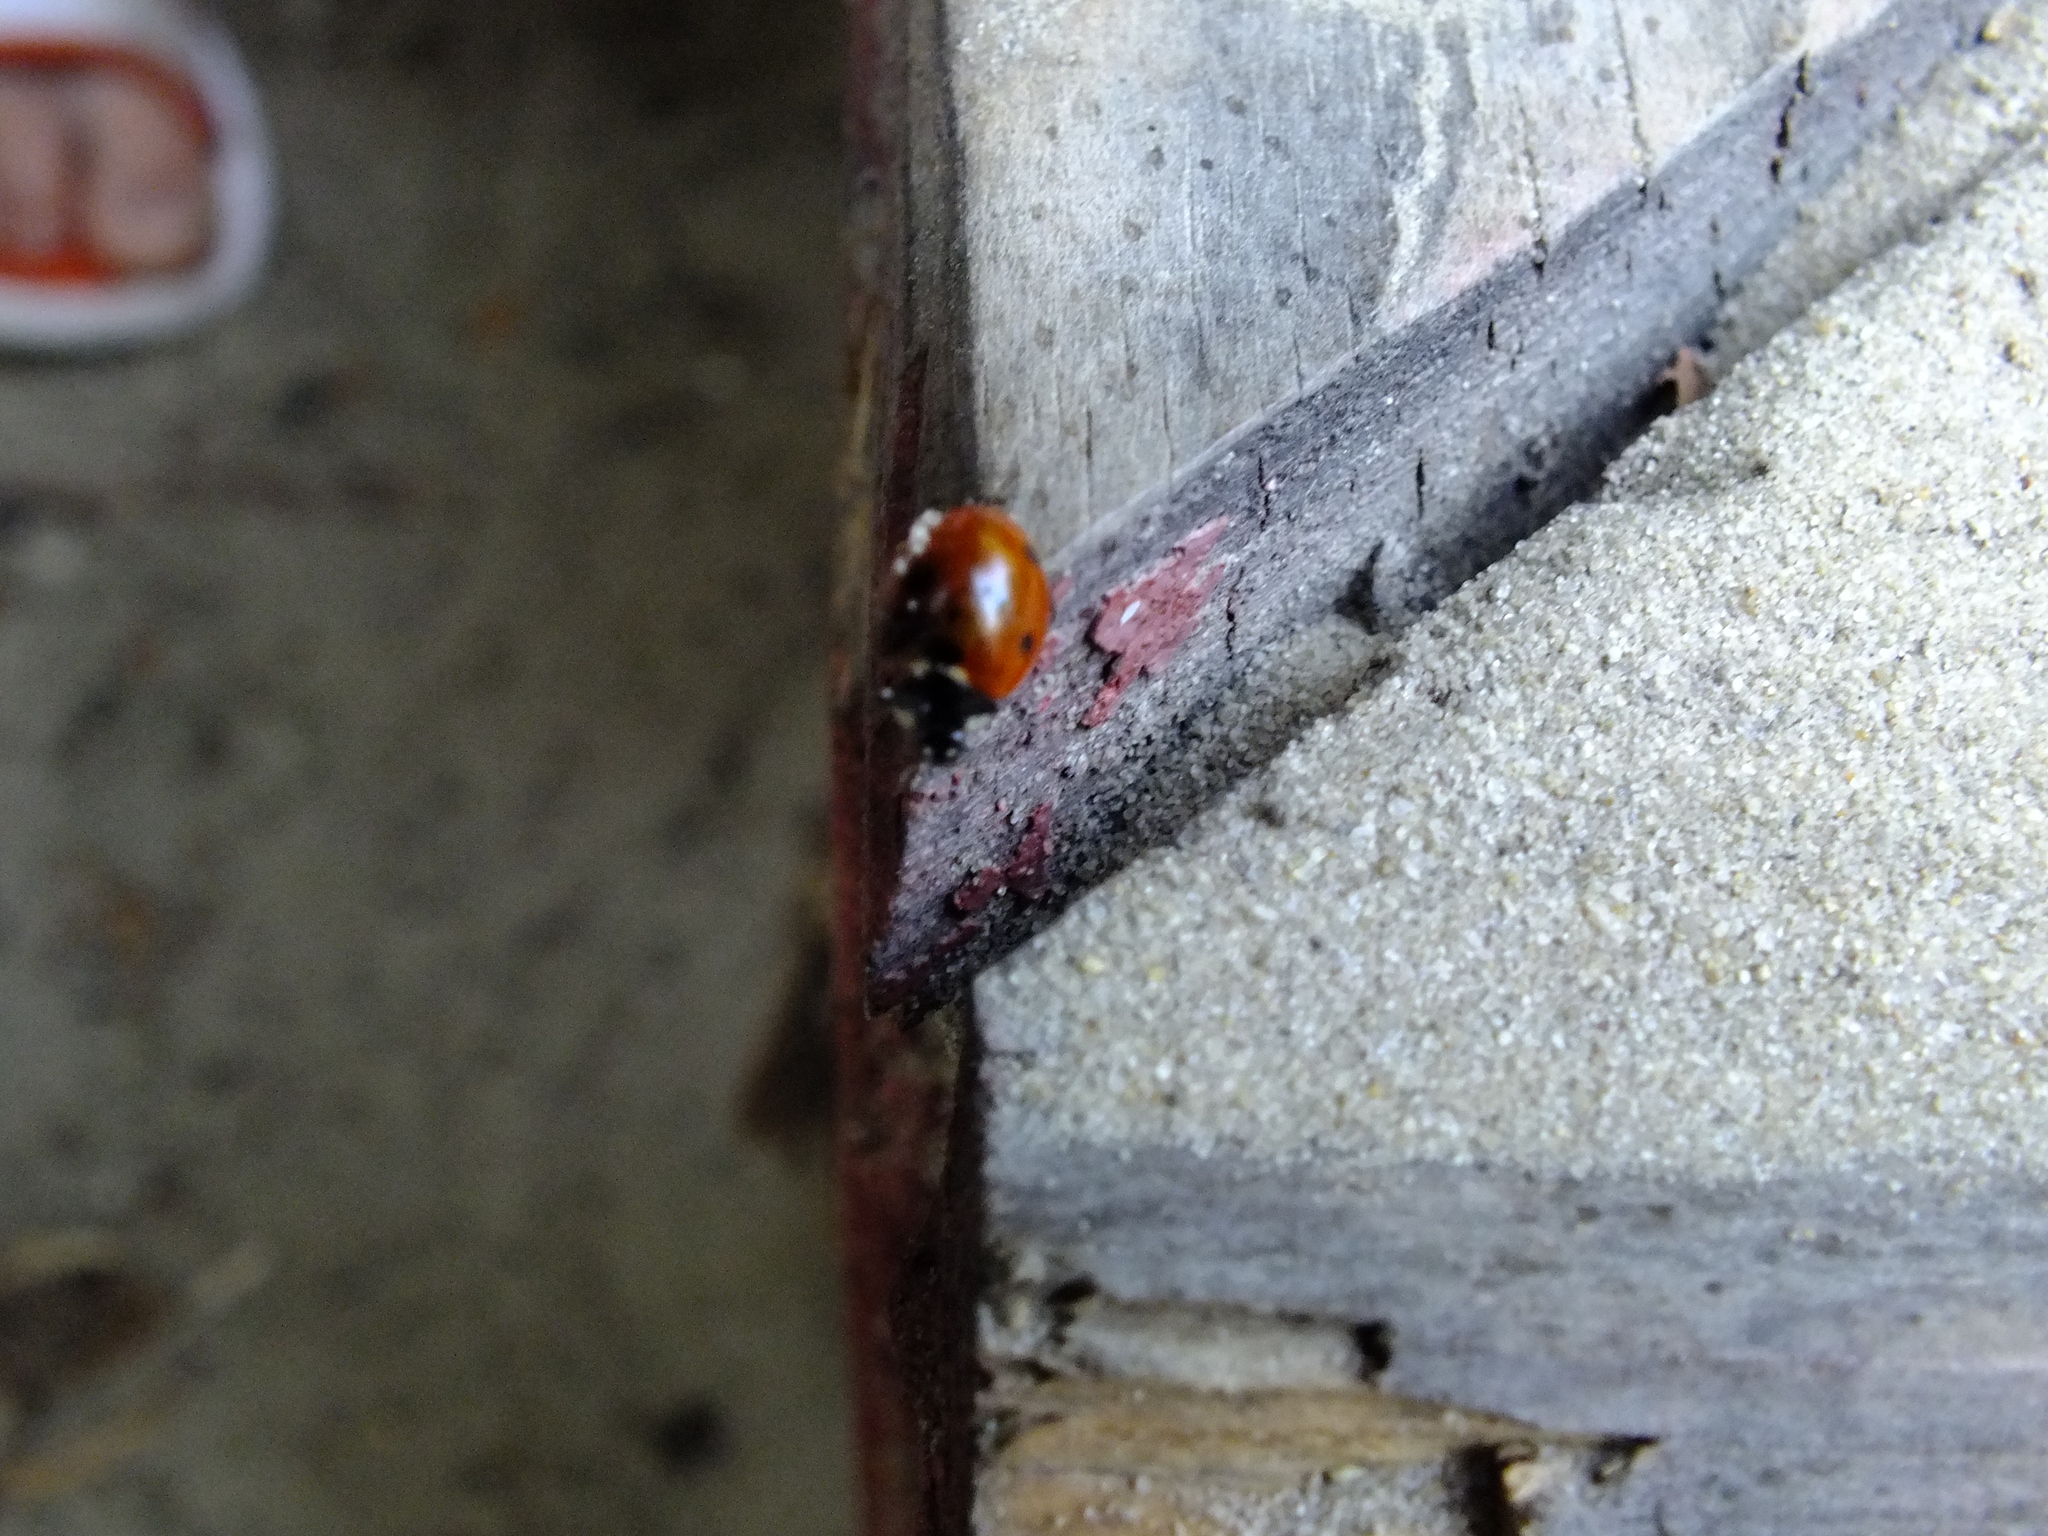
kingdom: Animalia
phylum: Arthropoda
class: Insecta
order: Coleoptera
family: Coccinellidae
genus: Coccinella
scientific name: Coccinella septempunctata
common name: Sevenspotted lady beetle
